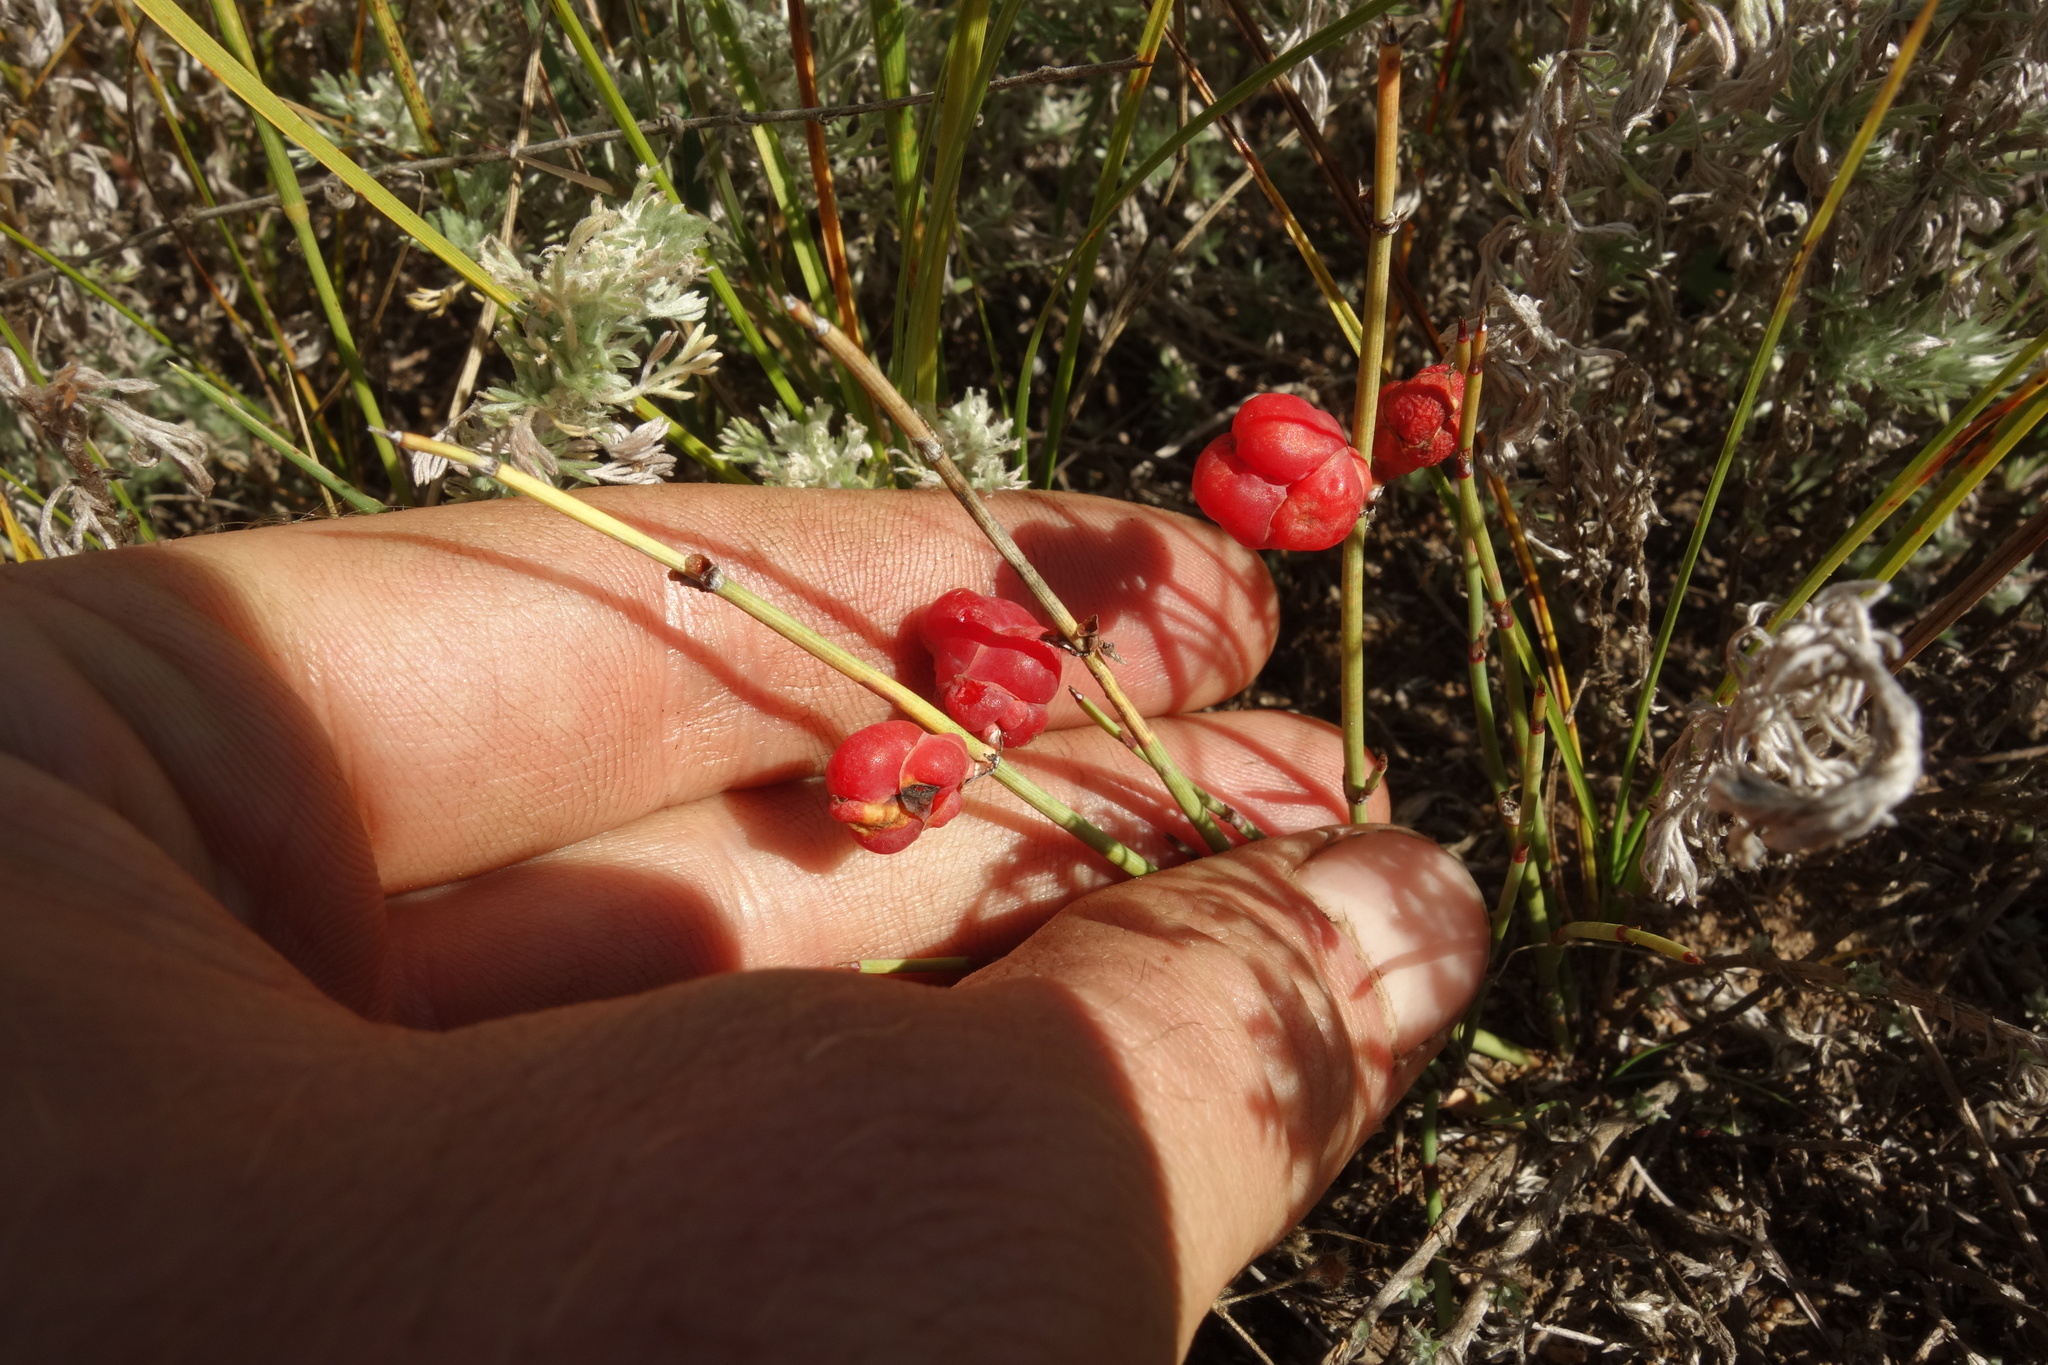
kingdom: Plantae
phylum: Tracheophyta
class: Gnetopsida
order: Ephedrales
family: Ephedraceae
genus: Ephedra
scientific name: Ephedra monosperma
